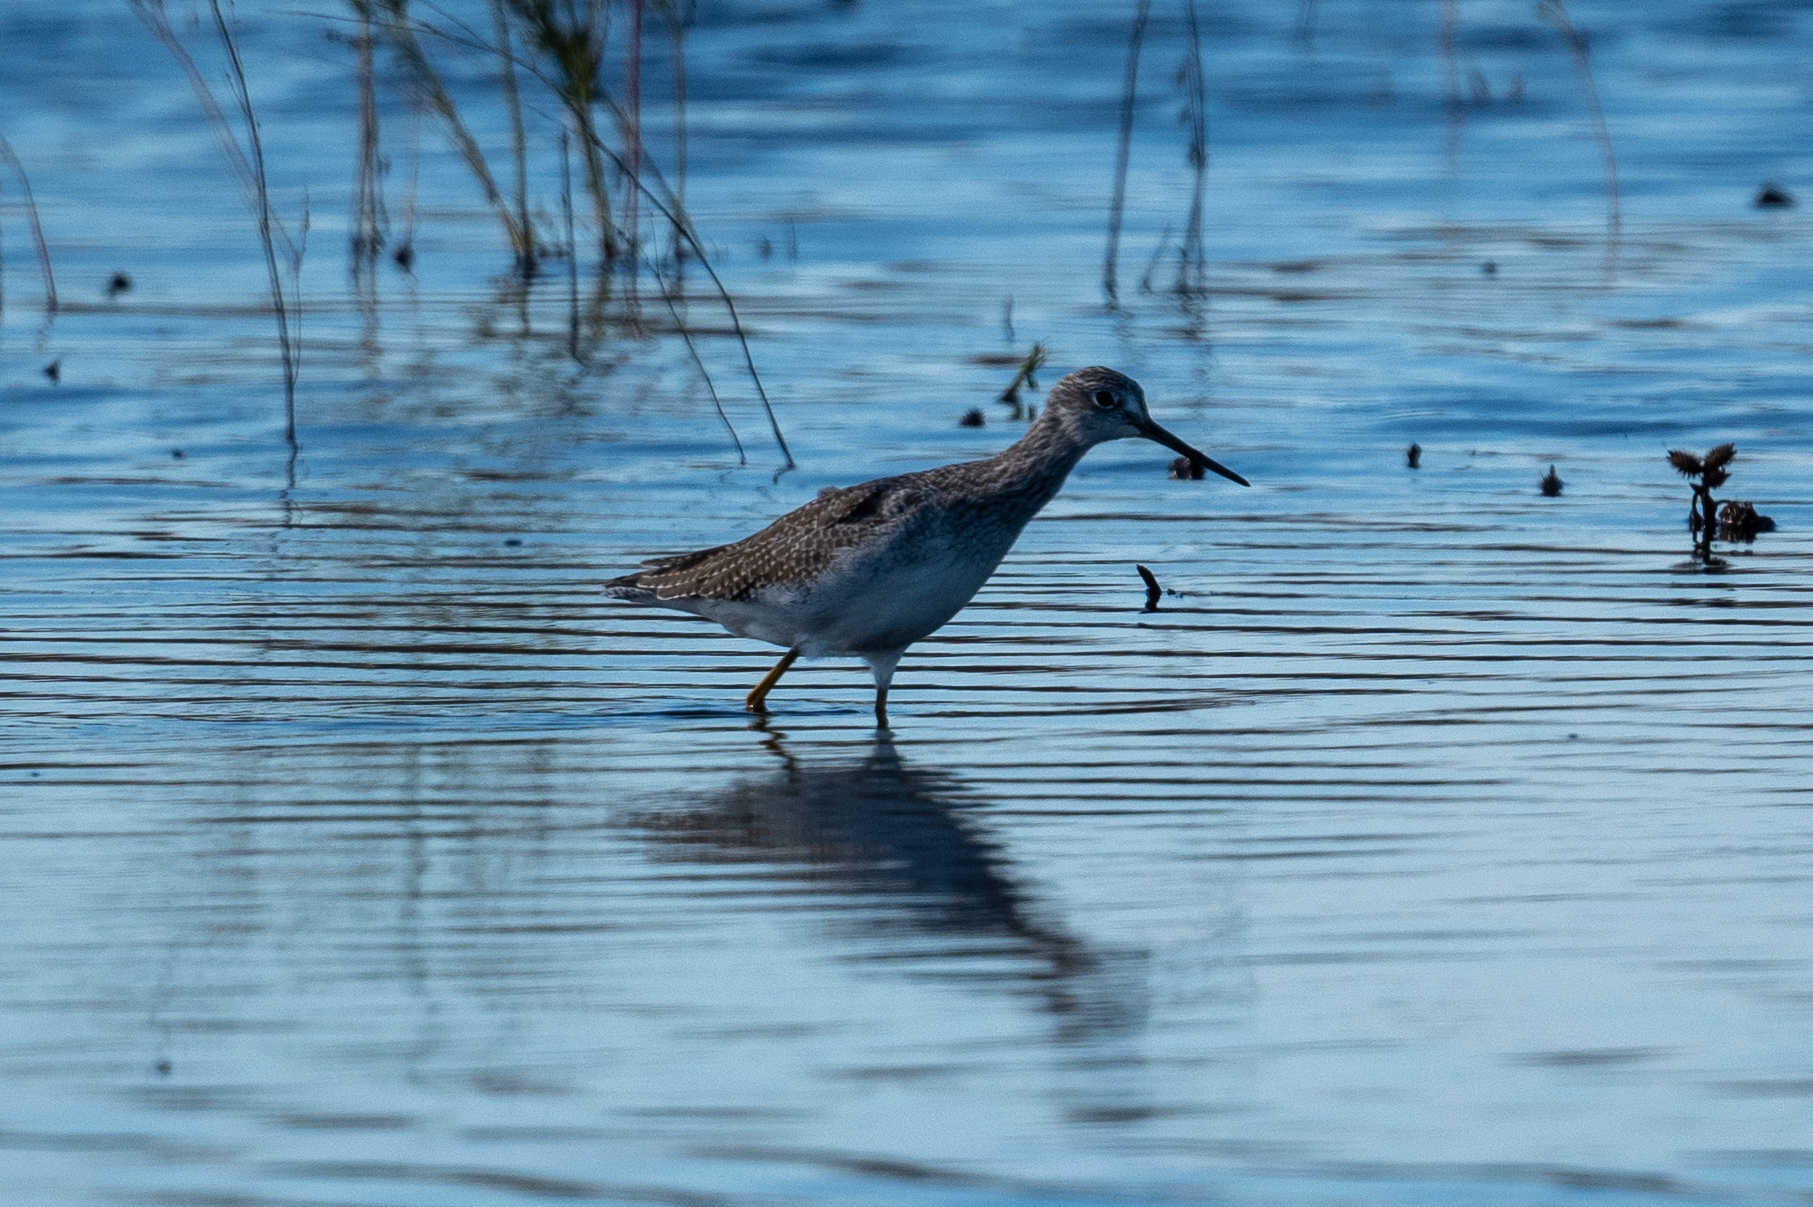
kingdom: Animalia
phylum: Chordata
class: Aves
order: Charadriiformes
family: Scolopacidae
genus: Tringa
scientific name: Tringa melanoleuca
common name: Greater yellowlegs
